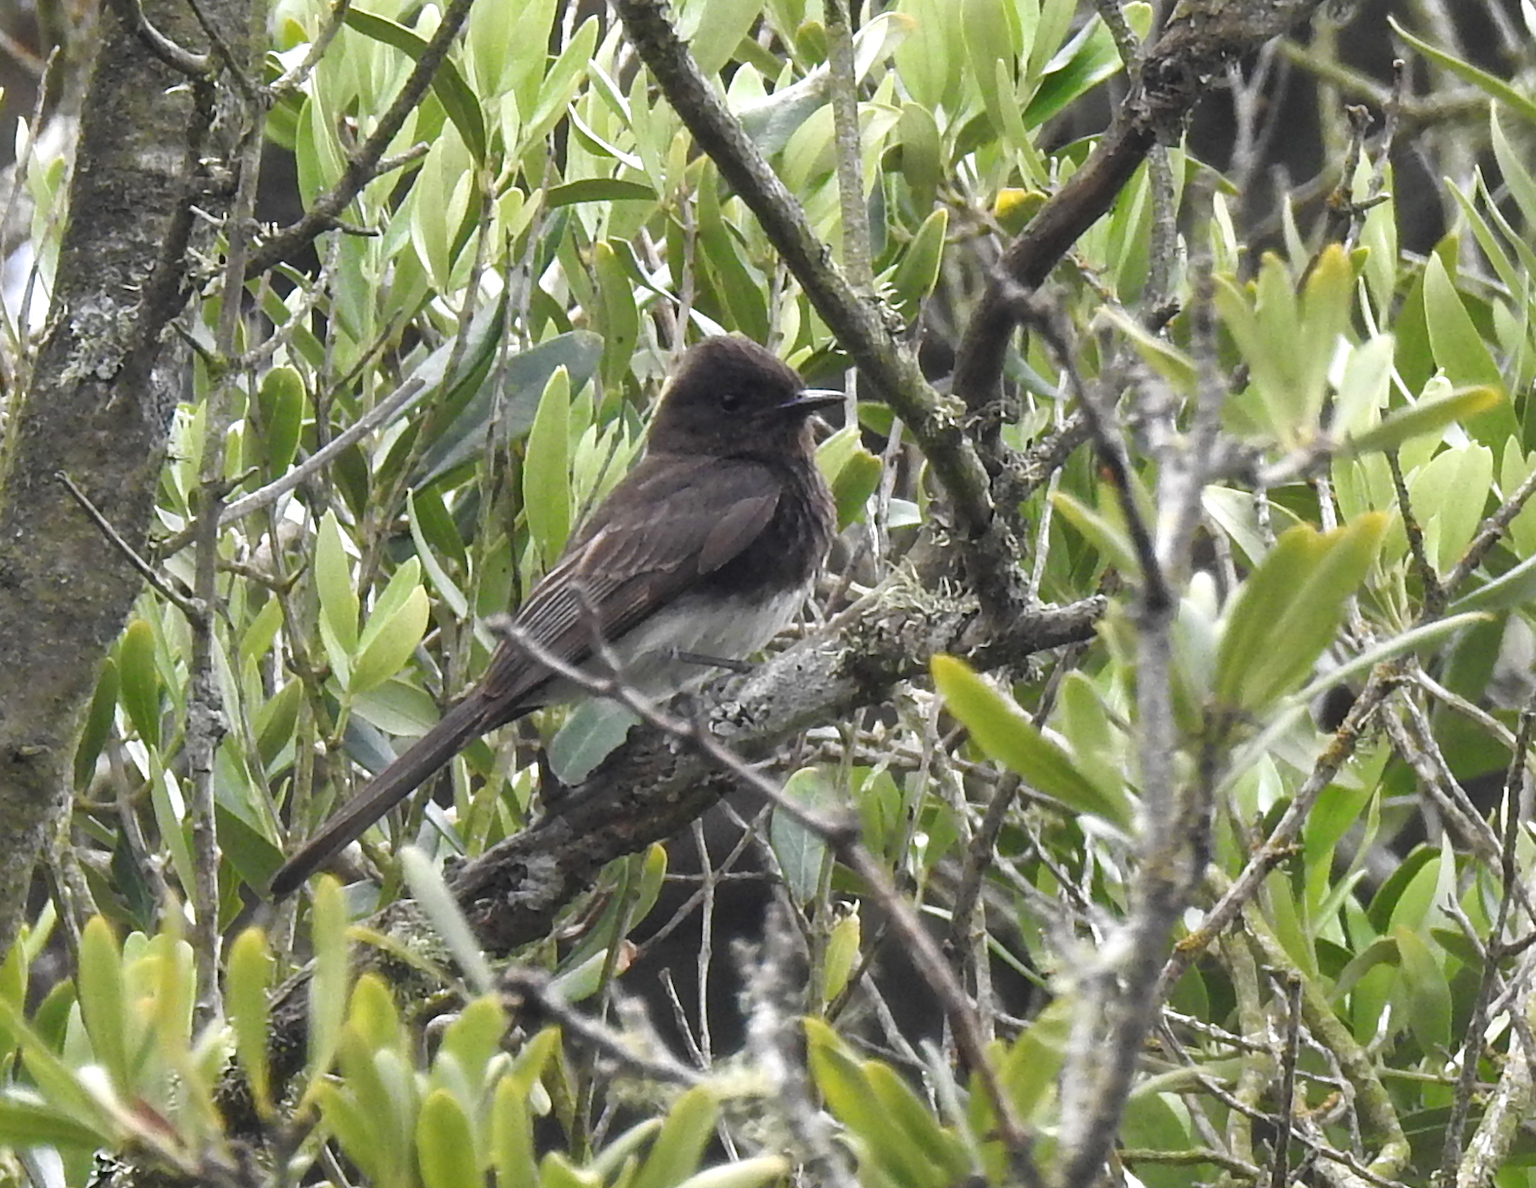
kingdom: Animalia
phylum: Chordata
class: Aves
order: Passeriformes
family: Tyrannidae
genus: Sayornis
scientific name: Sayornis nigricans
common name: Black phoebe
